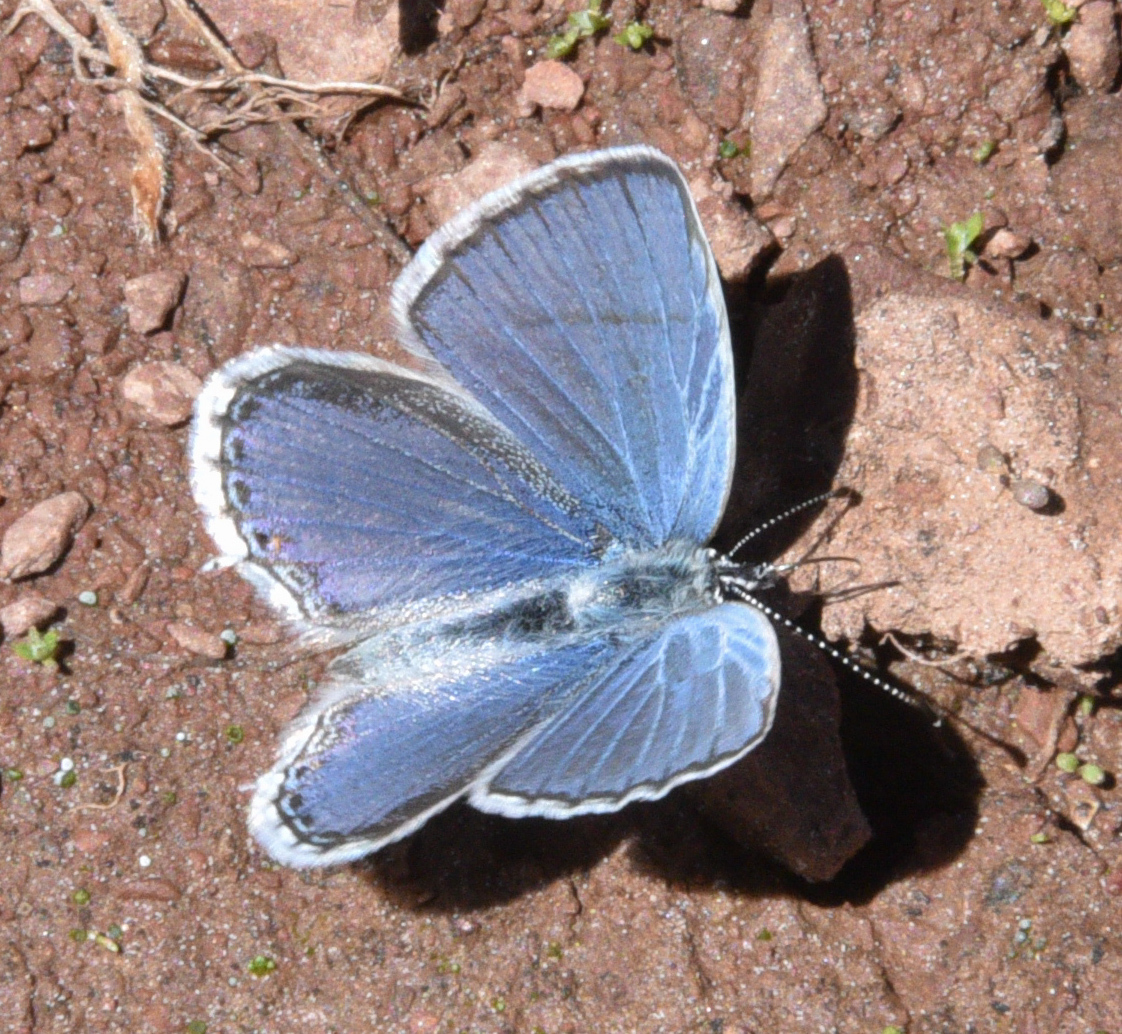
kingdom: Animalia
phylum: Arthropoda
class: Insecta
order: Lepidoptera
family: Lycaenidae
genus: Elkalyce
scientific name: Elkalyce amyntula
